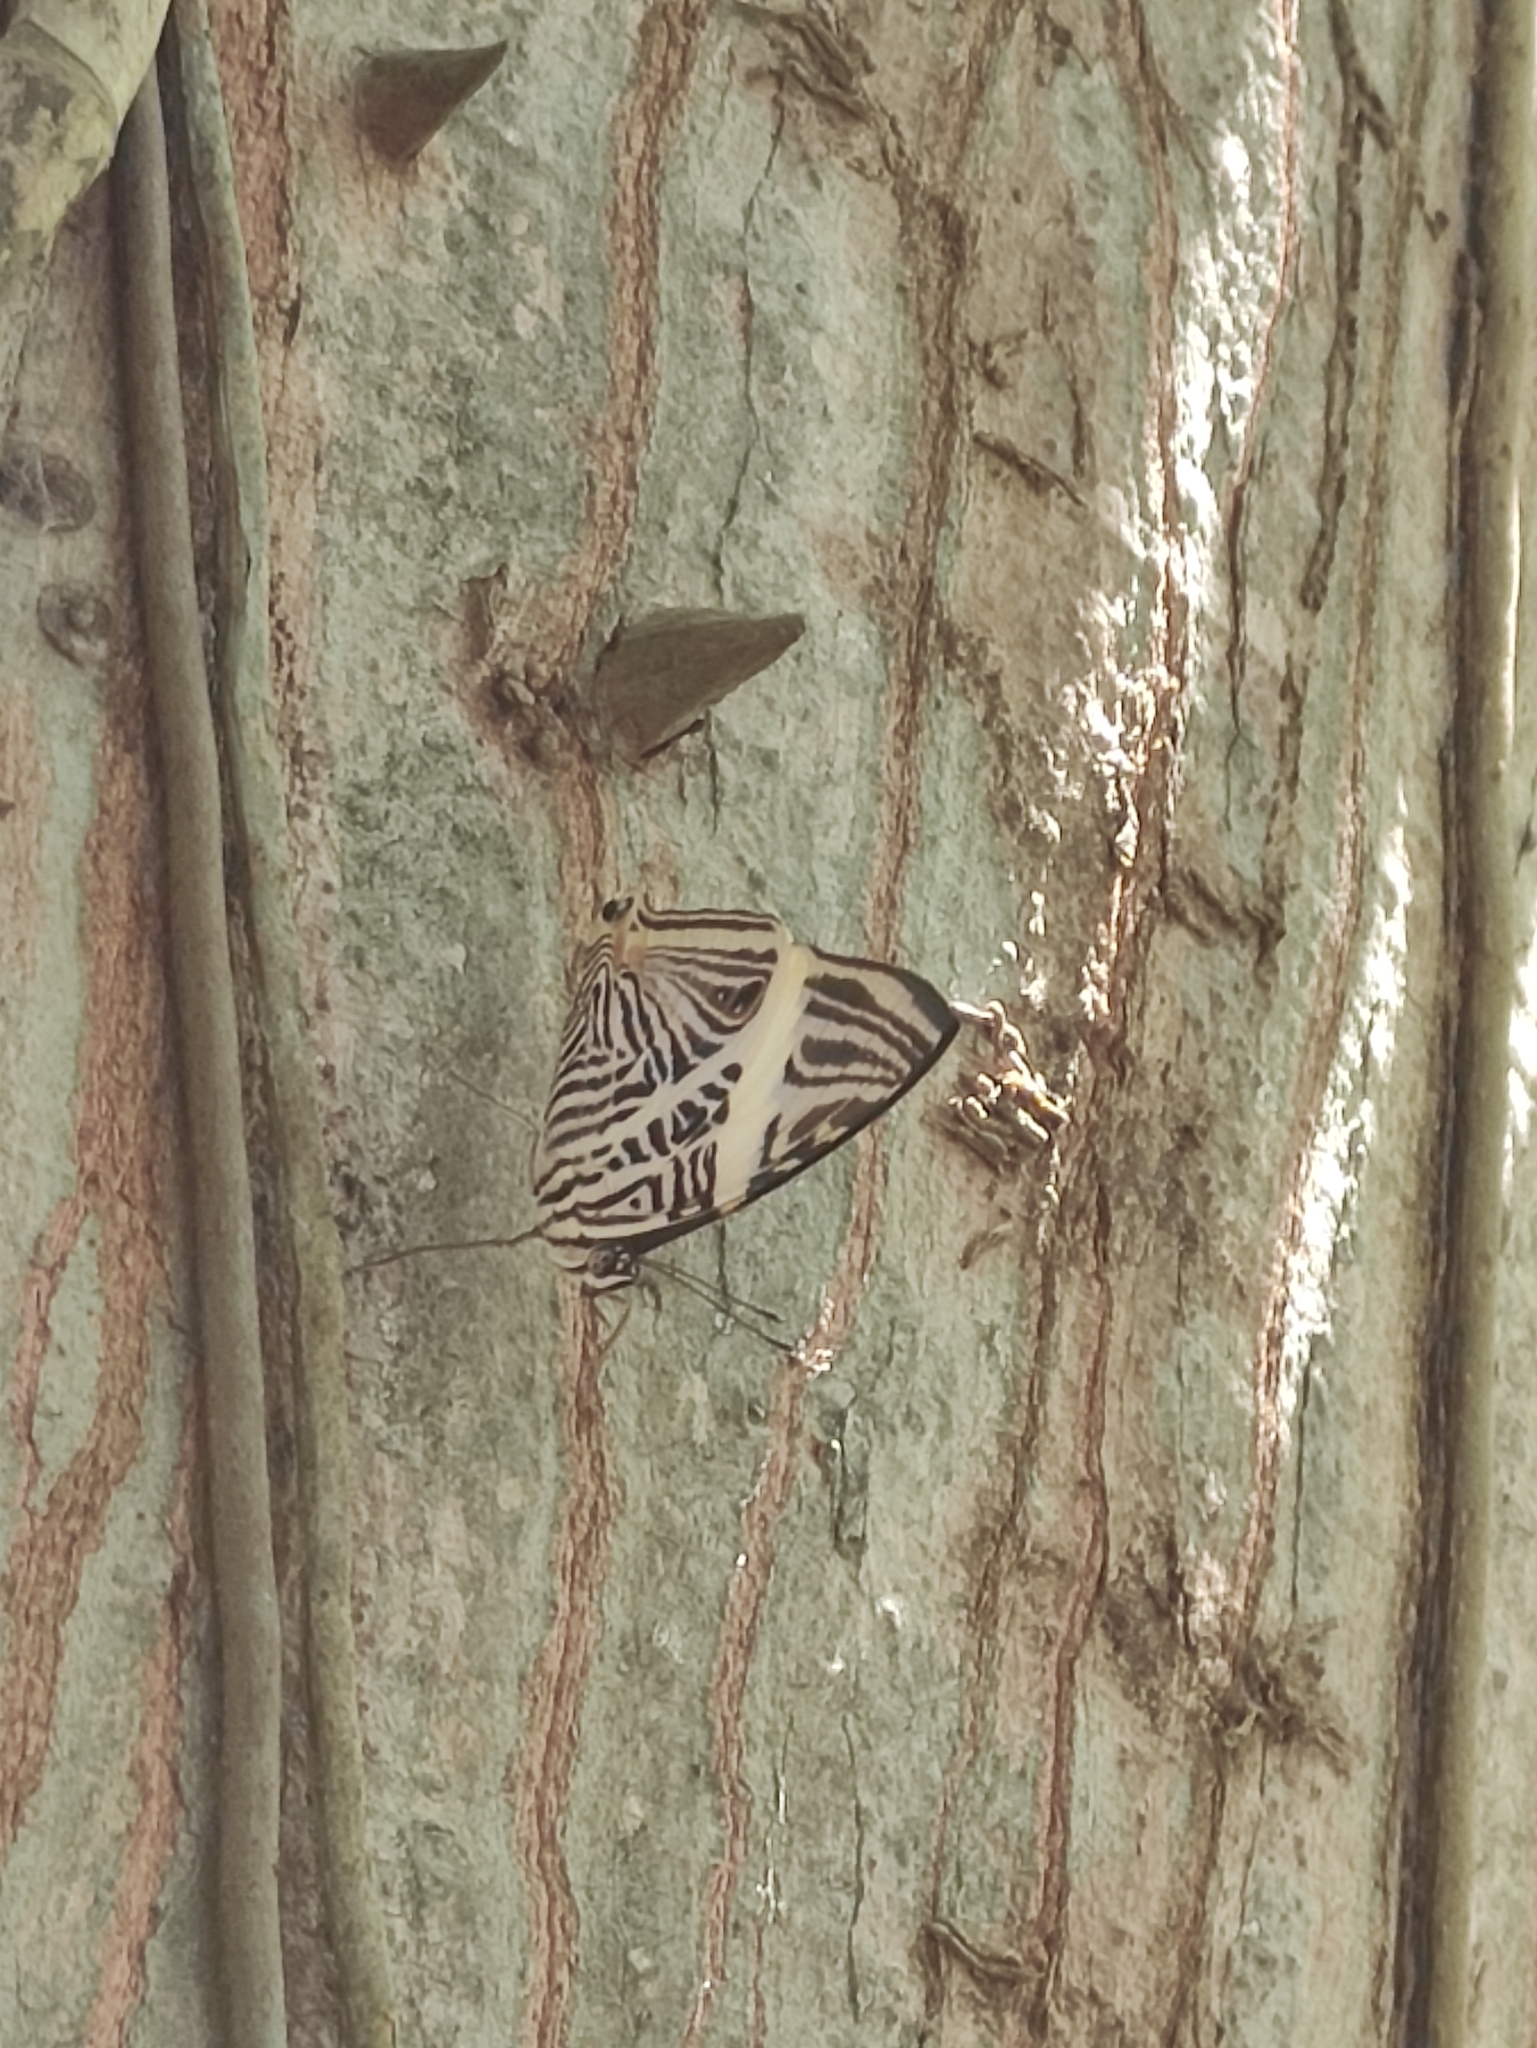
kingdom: Animalia
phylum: Arthropoda
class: Insecta
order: Lepidoptera
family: Nymphalidae
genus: Colobura
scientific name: Colobura dirce
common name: Dirce beauty
